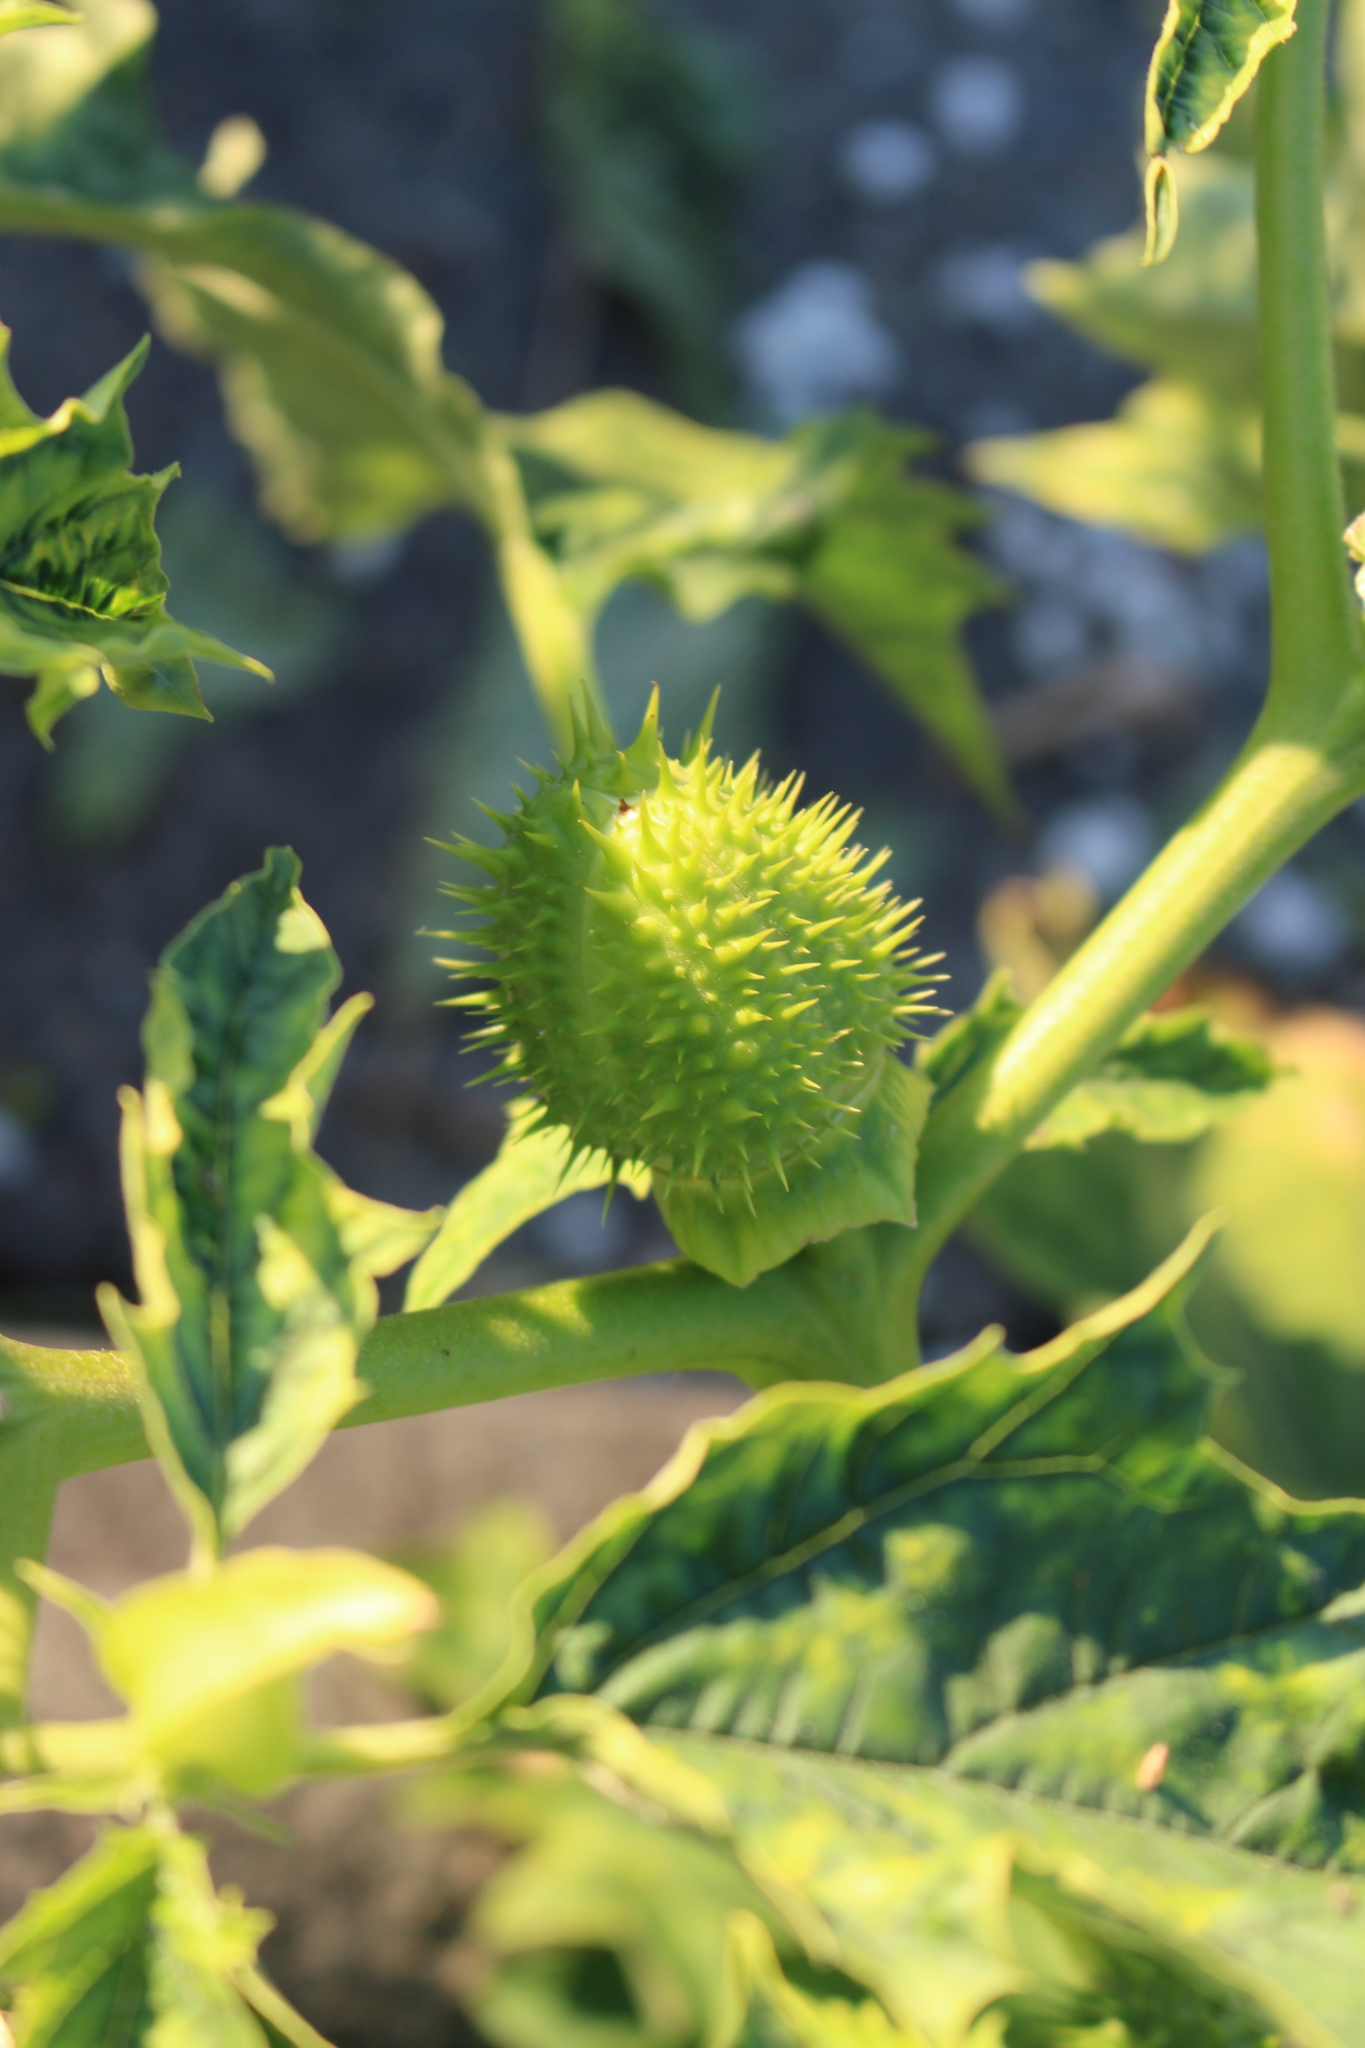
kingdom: Plantae
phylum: Tracheophyta
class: Magnoliopsida
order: Solanales
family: Solanaceae
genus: Datura
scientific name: Datura stramonium
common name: Thorn-apple
